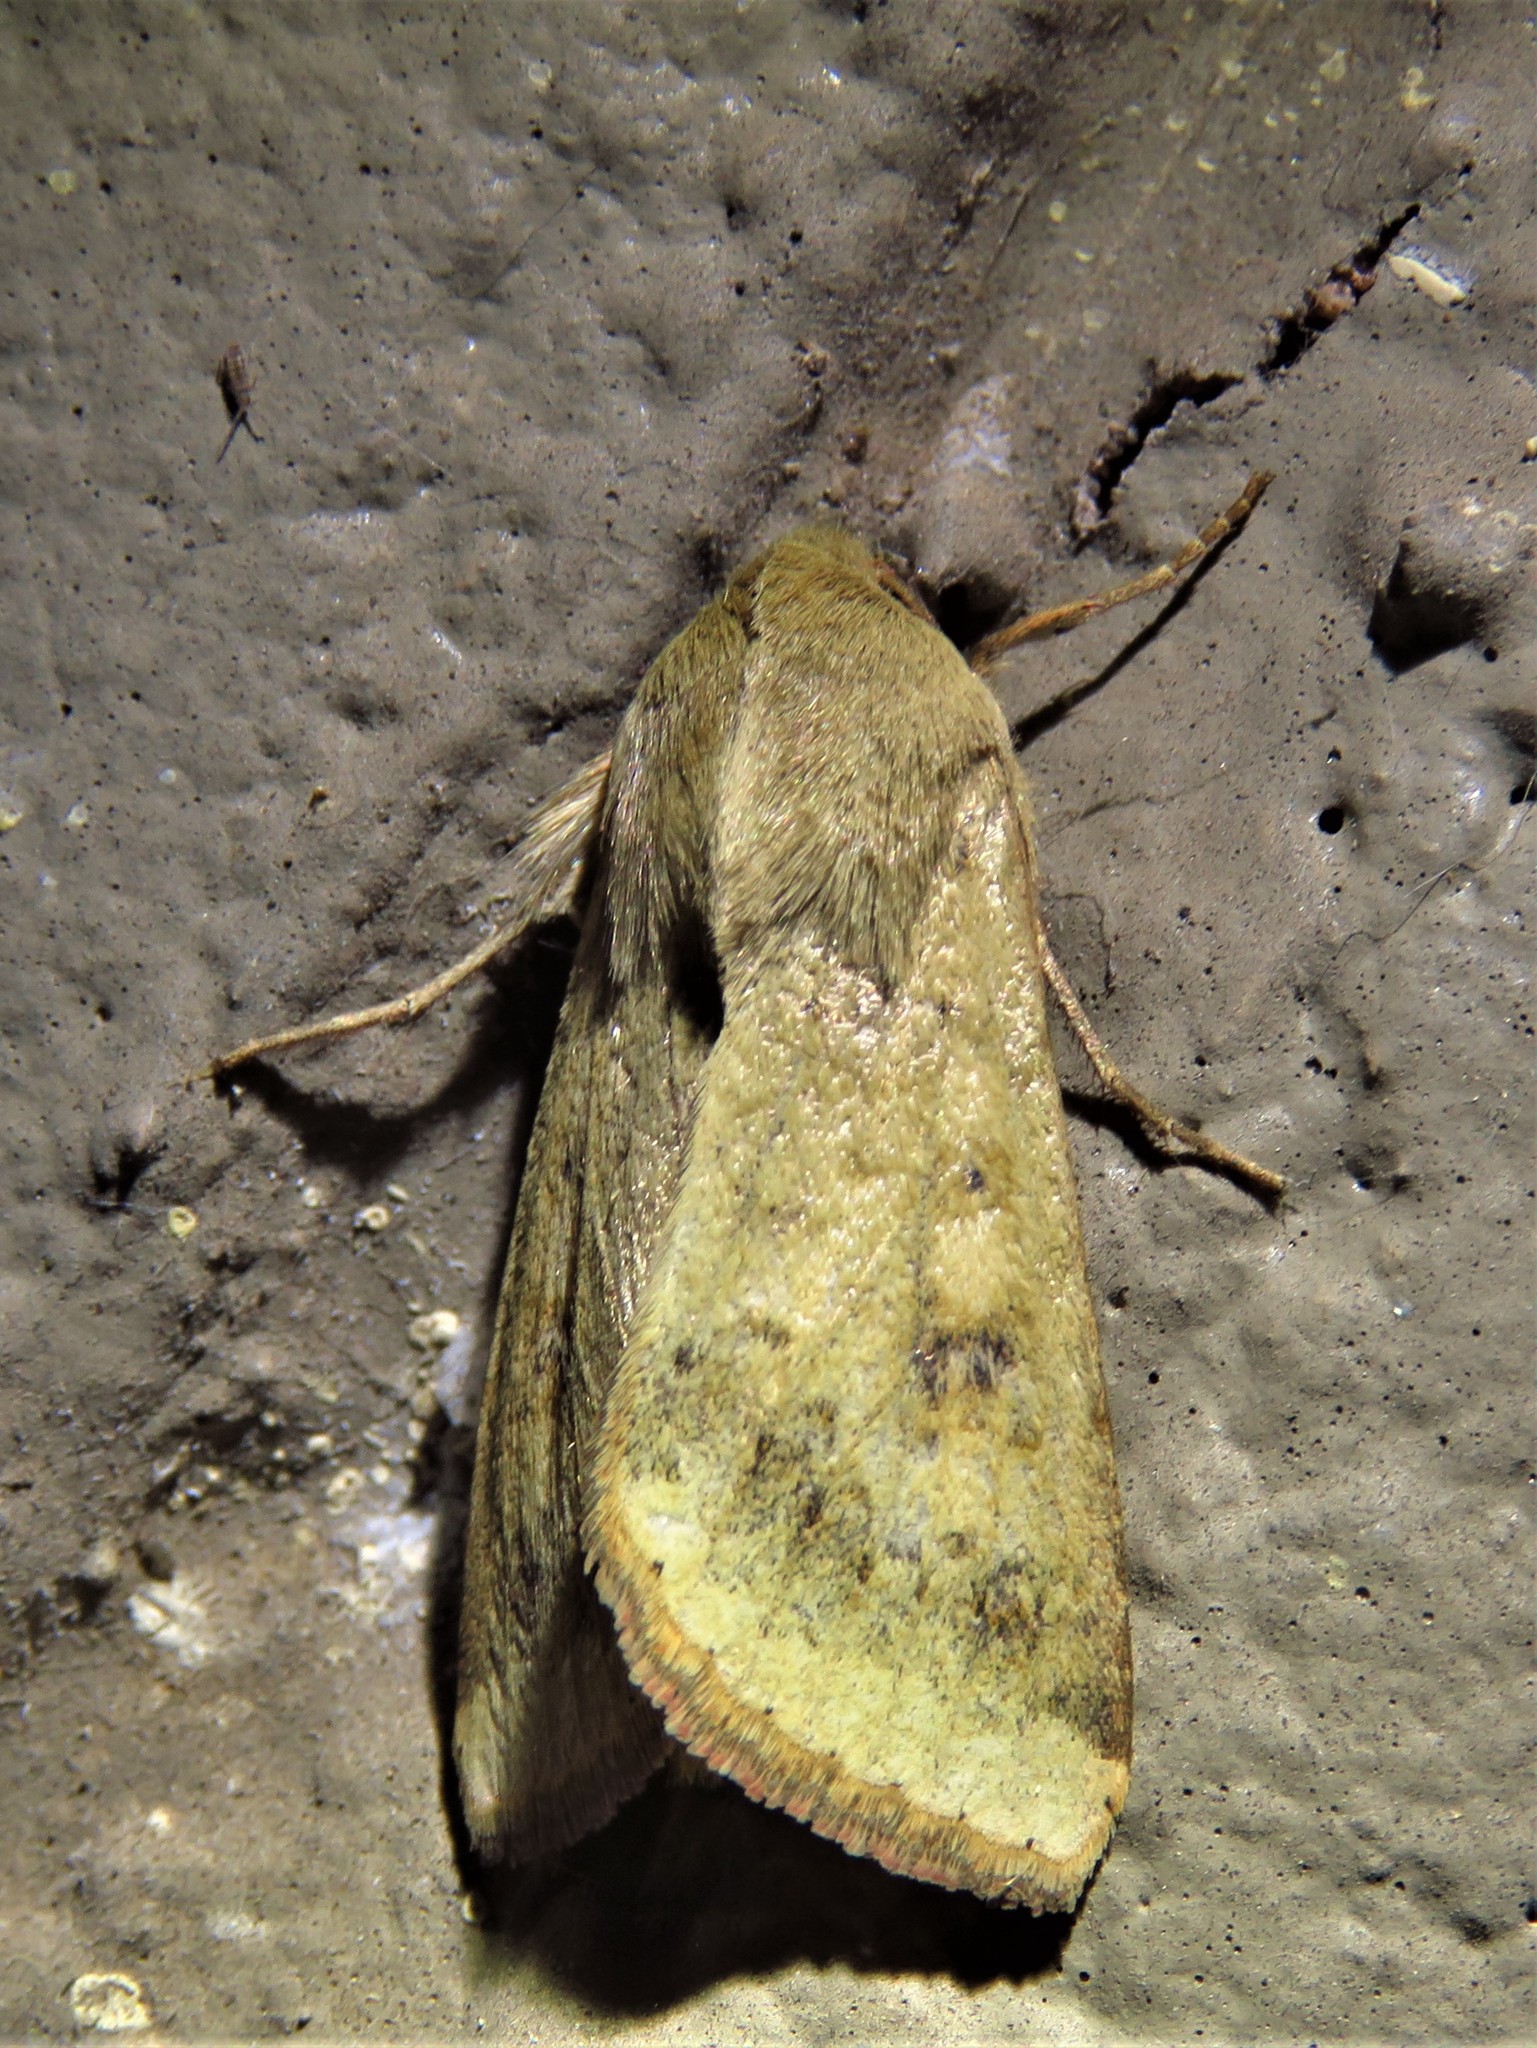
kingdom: Animalia
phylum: Arthropoda
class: Insecta
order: Lepidoptera
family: Noctuidae
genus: Helicoverpa
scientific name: Helicoverpa zea
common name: Bollworm
